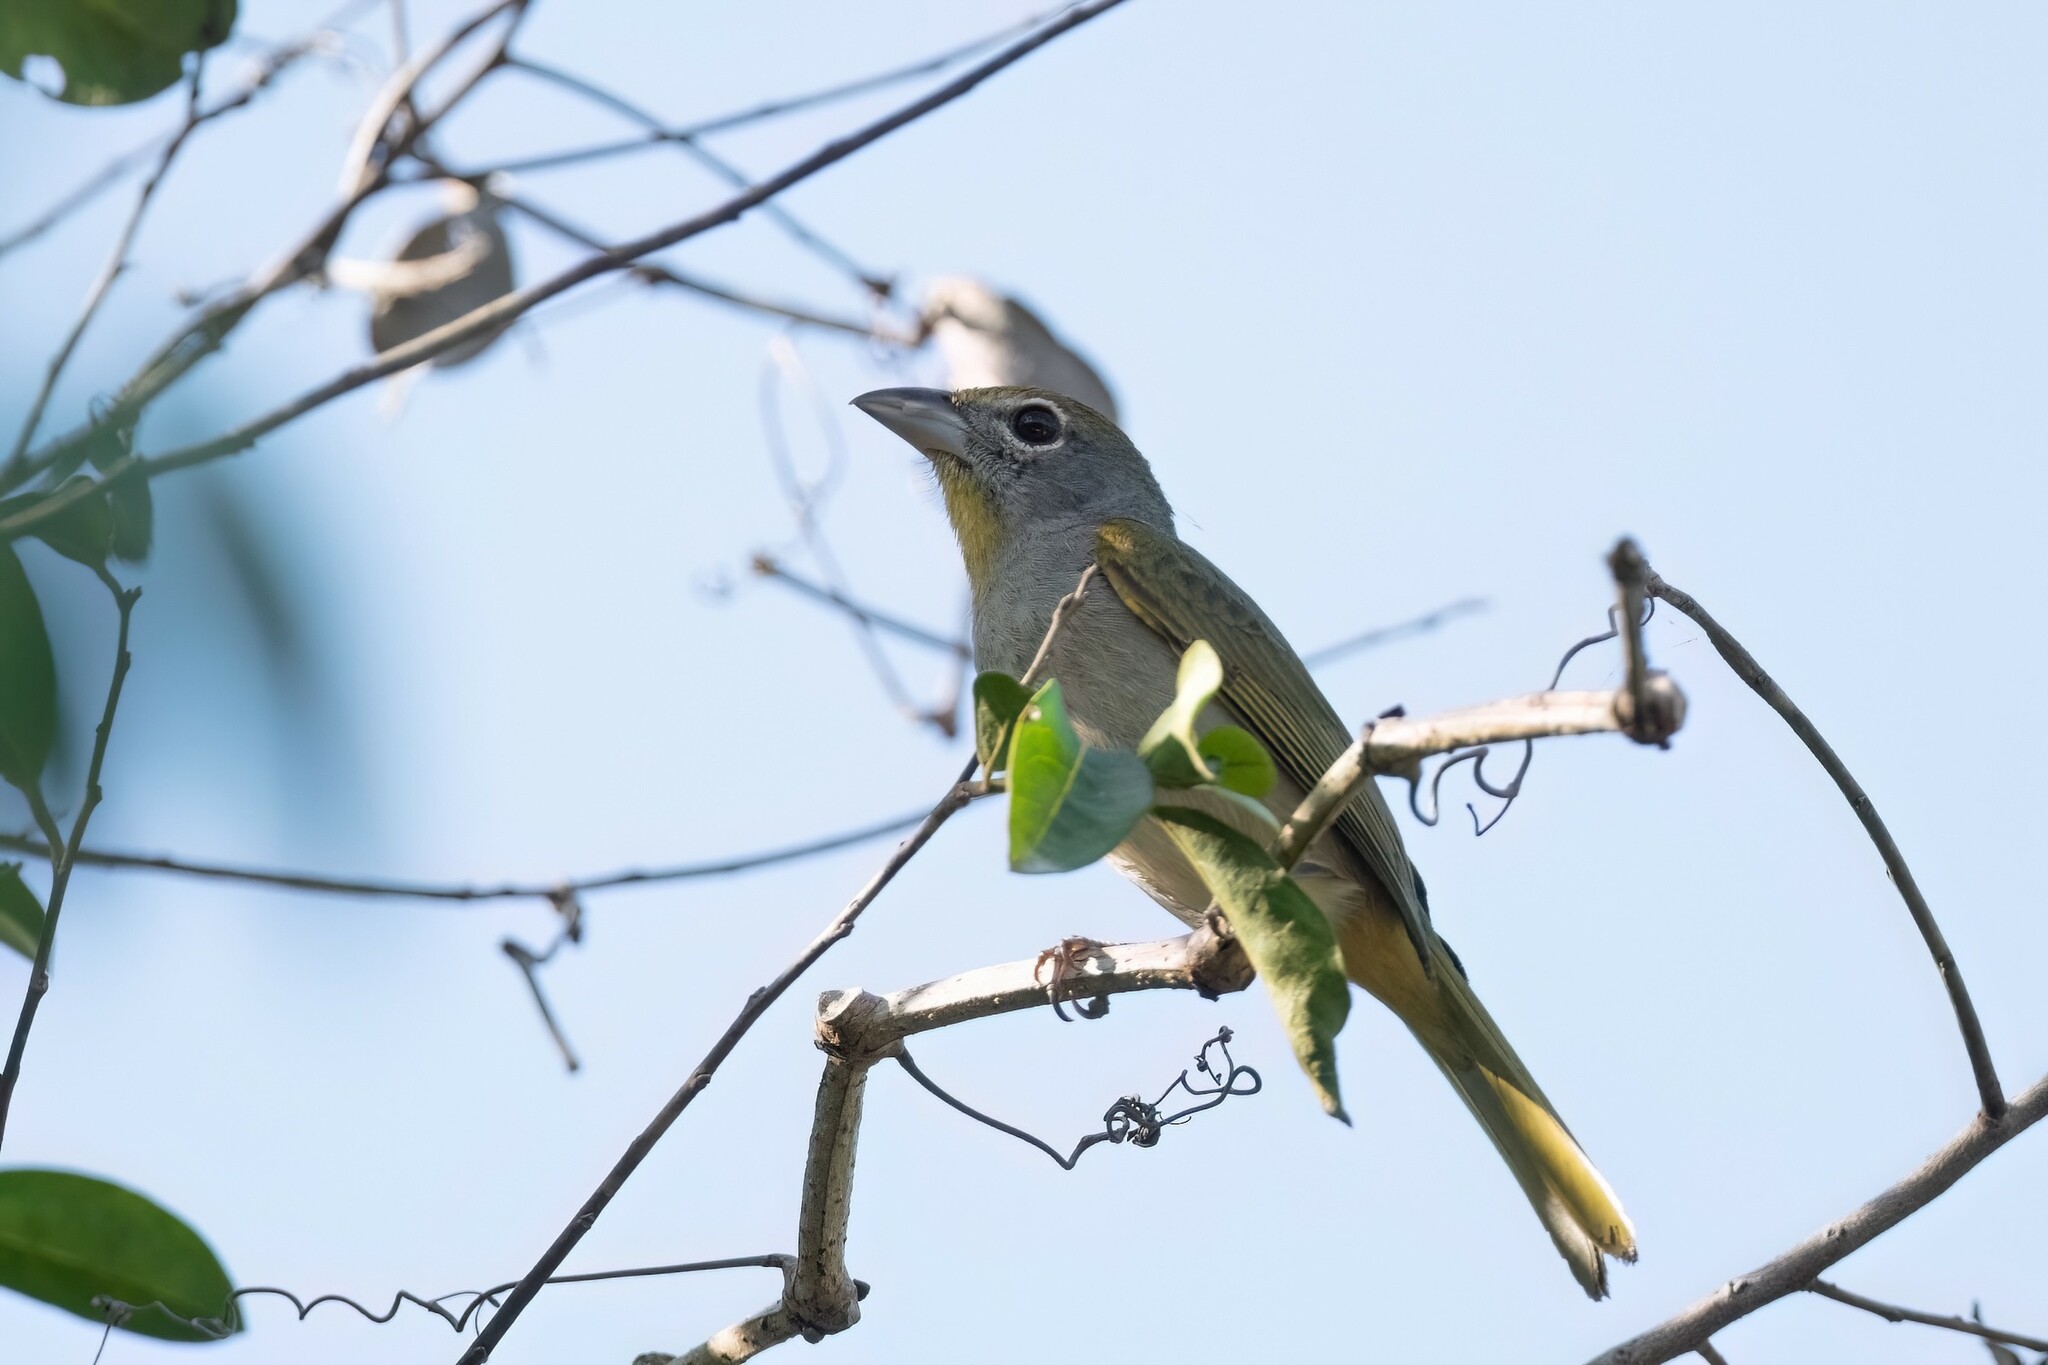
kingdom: Animalia
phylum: Chordata
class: Aves
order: Passeriformes
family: Cardinalidae
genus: Piranga
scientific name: Piranga roseogularis
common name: Rose-throated tanager
